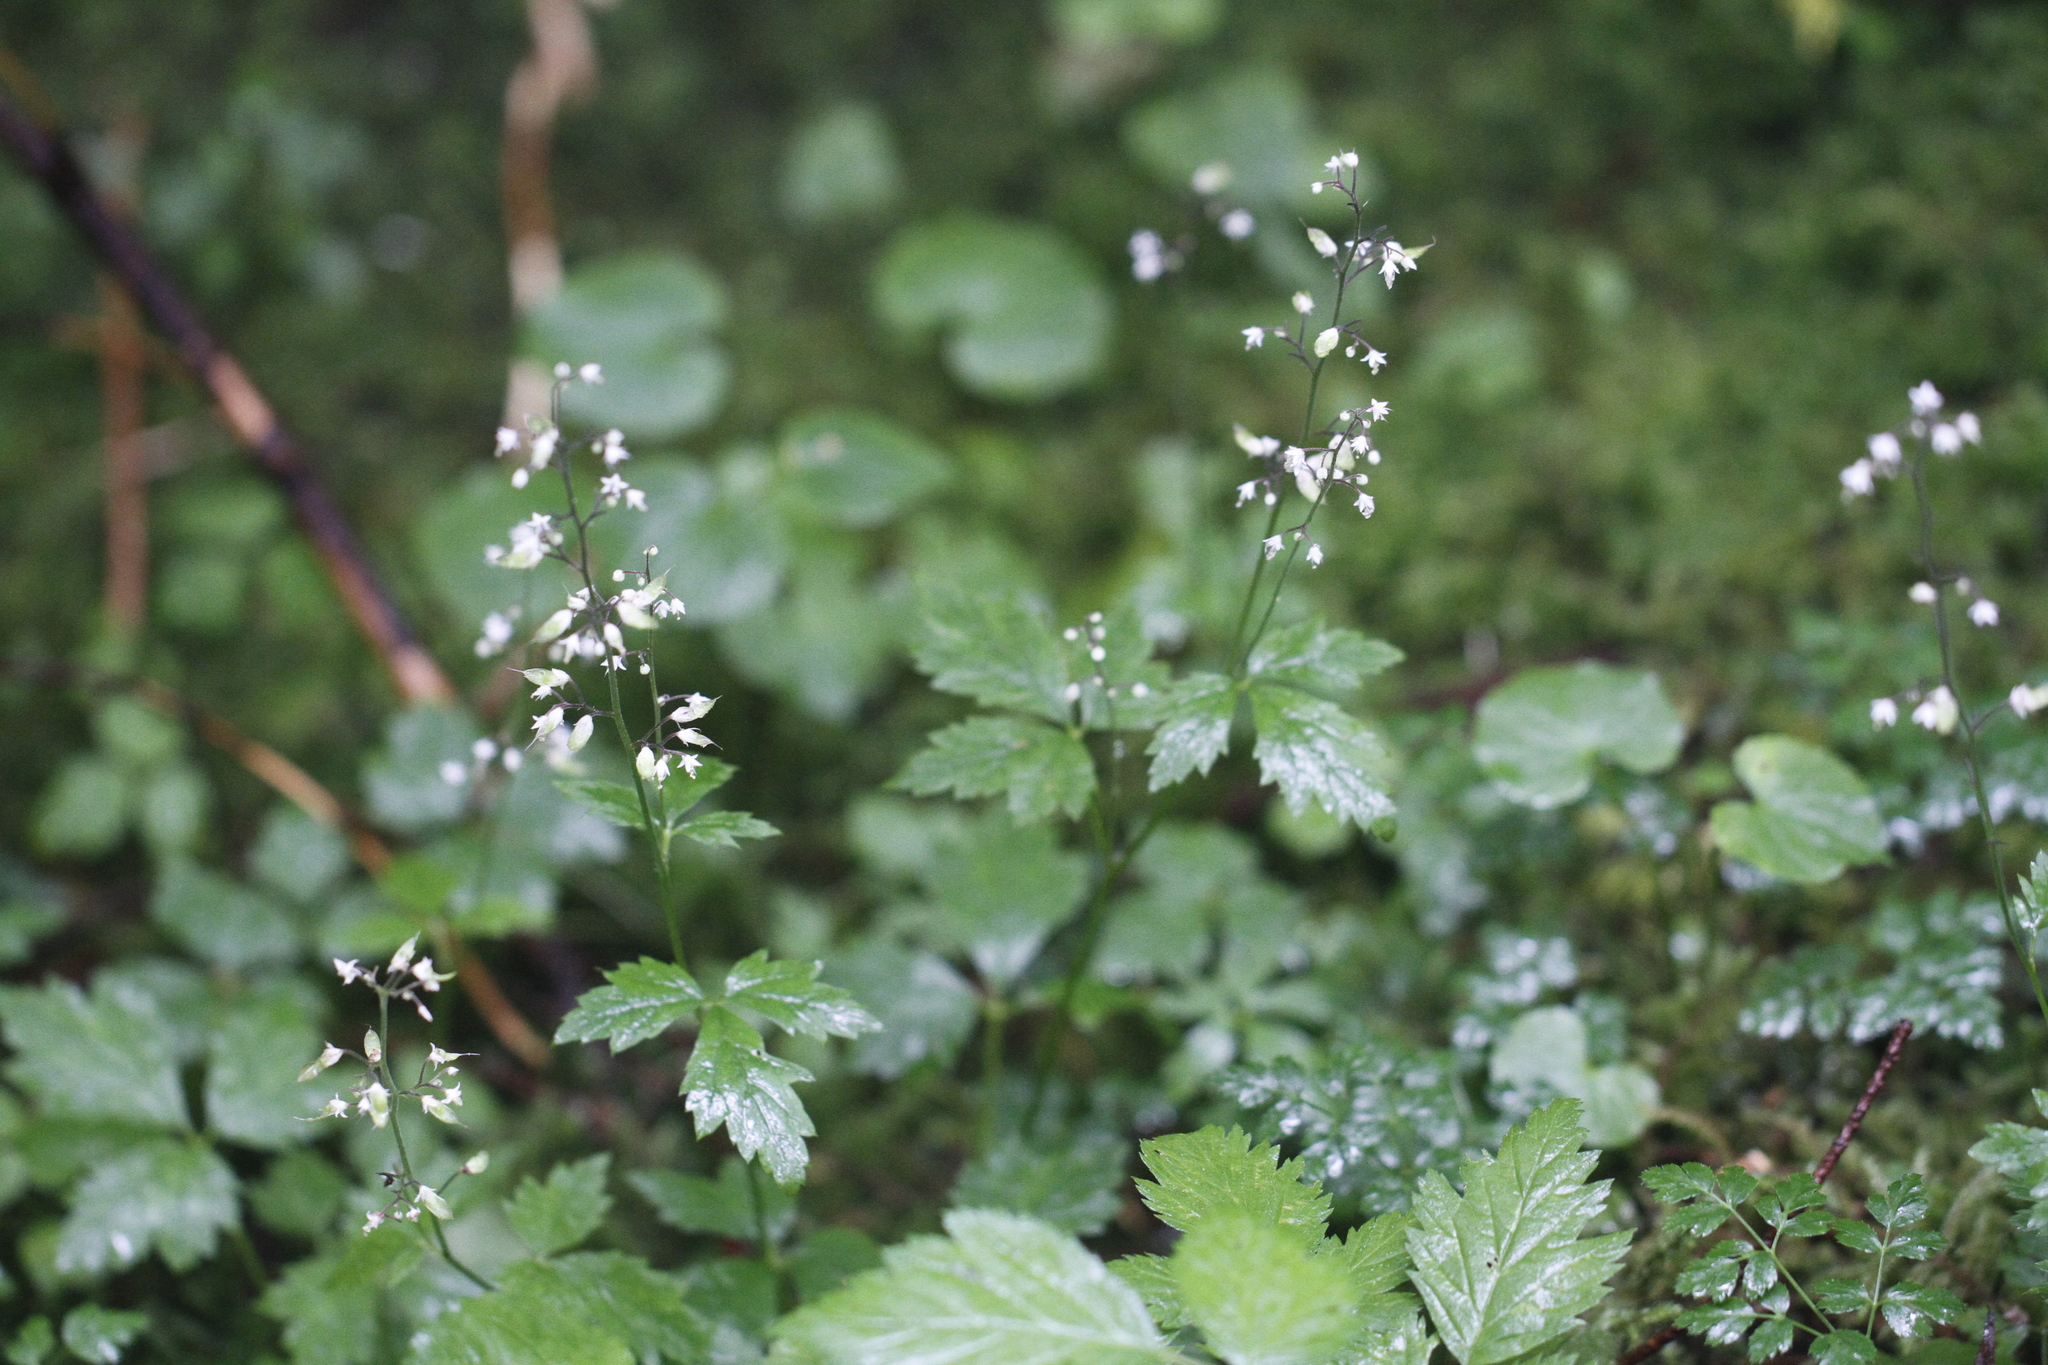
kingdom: Plantae
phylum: Tracheophyta
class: Magnoliopsida
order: Saxifragales
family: Saxifragaceae
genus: Tiarella
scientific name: Tiarella trifoliata
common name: Sugar-scoop
